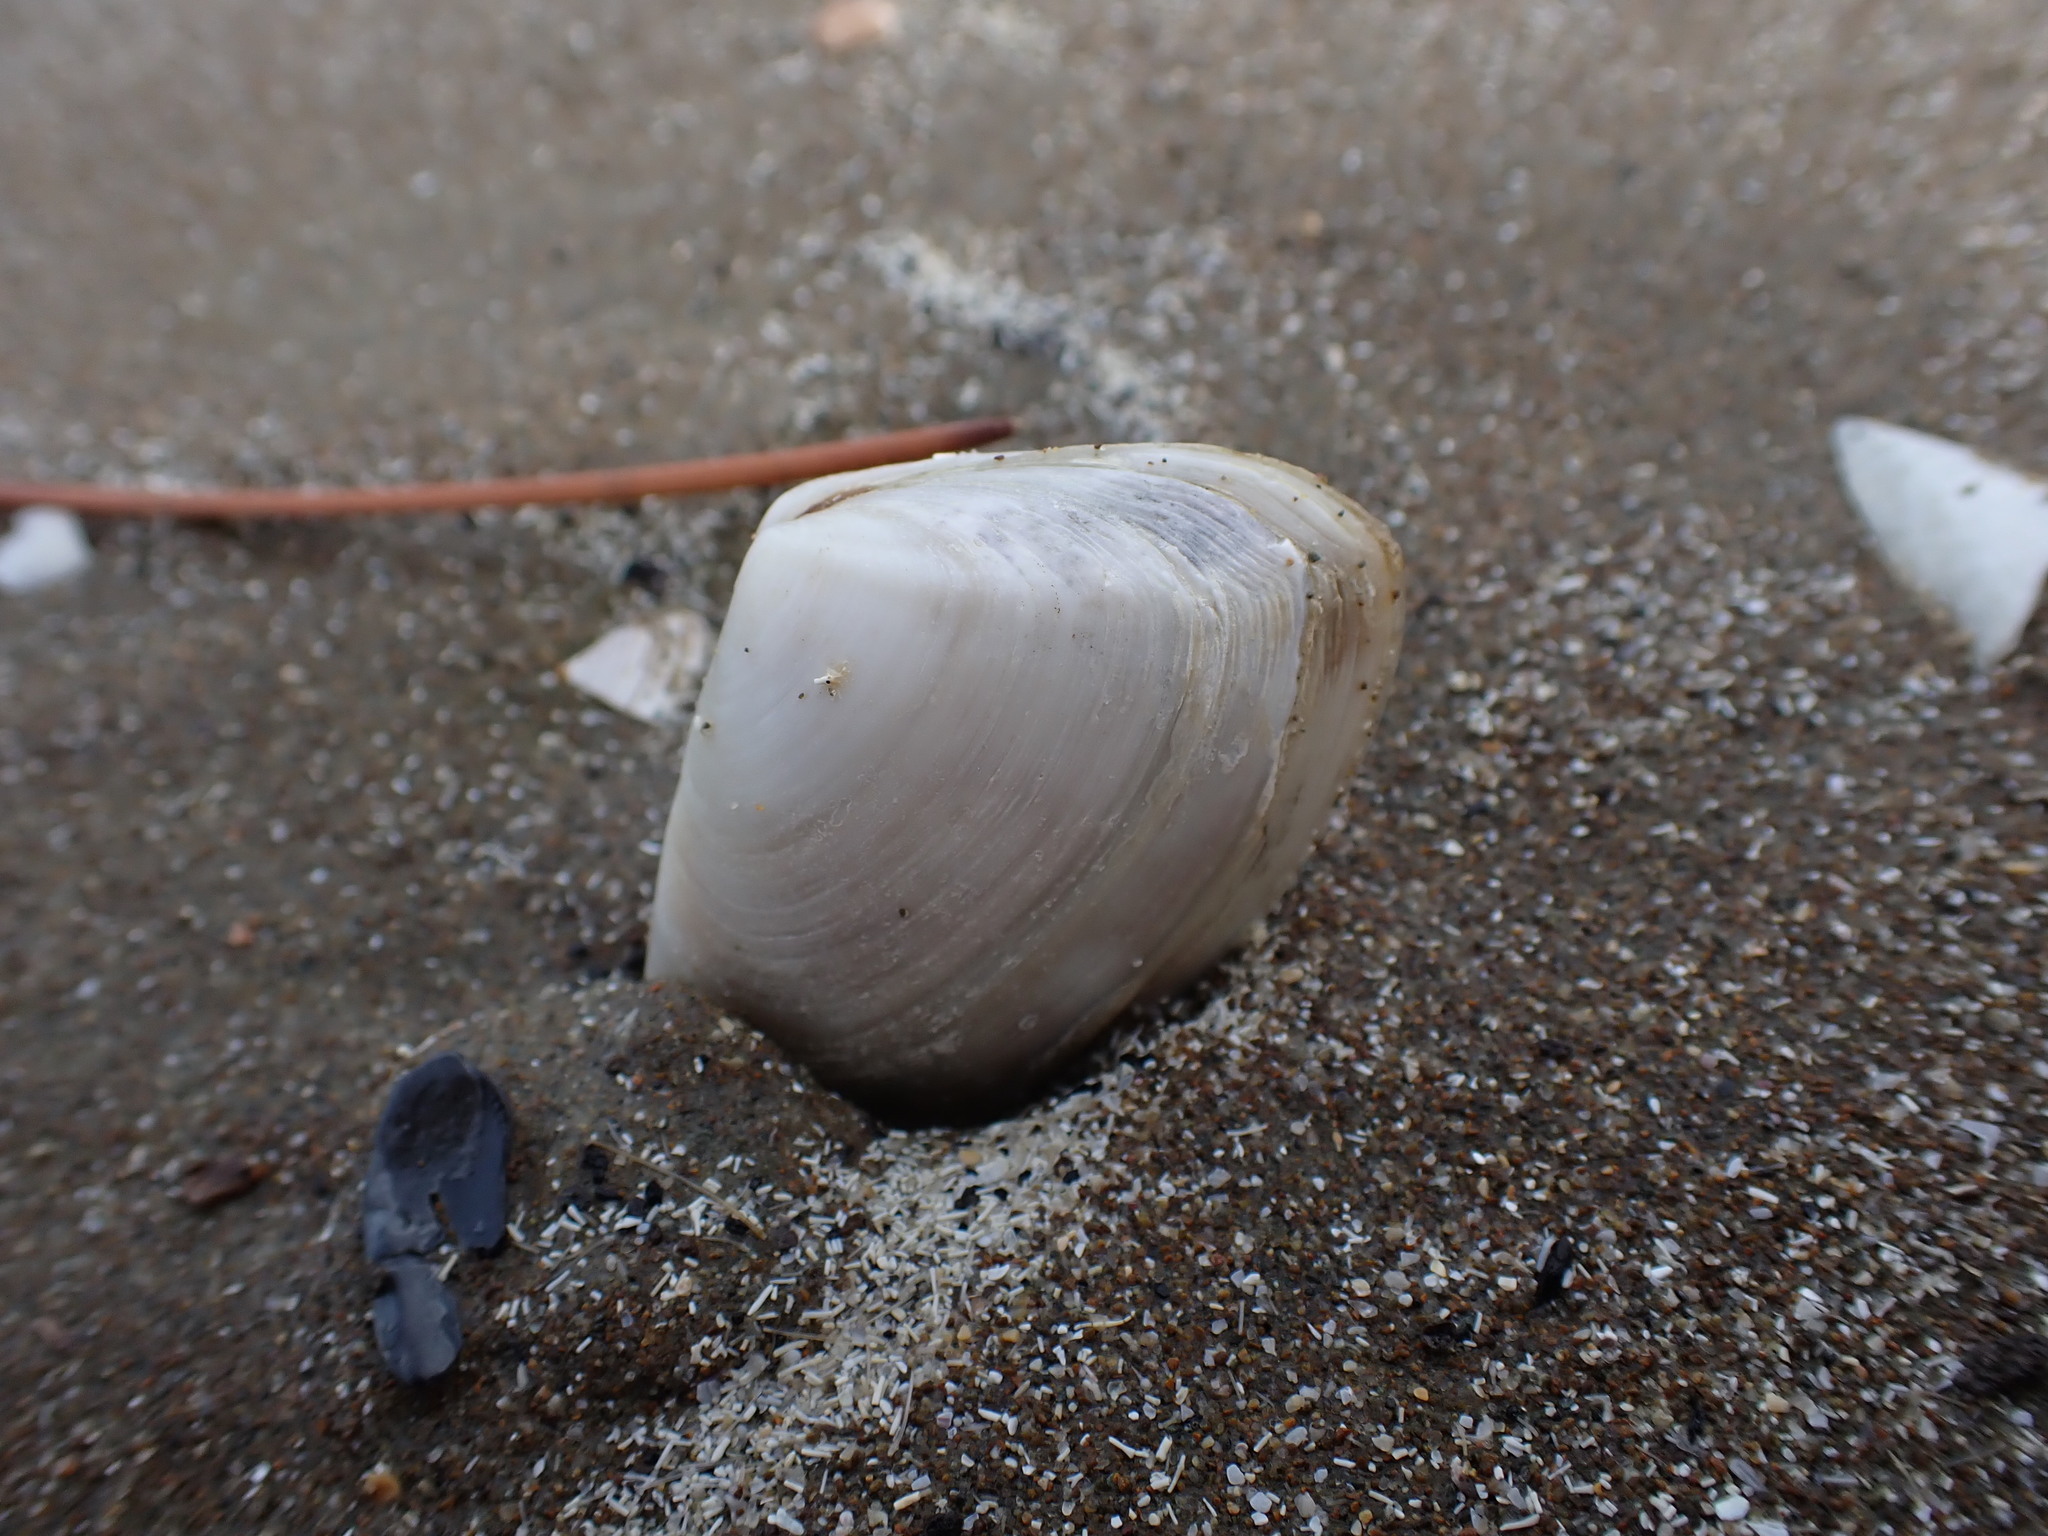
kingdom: Animalia
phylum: Mollusca
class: Bivalvia
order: Venerida
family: Mesodesmatidae
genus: Paphies
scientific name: Paphies subtriangulata
